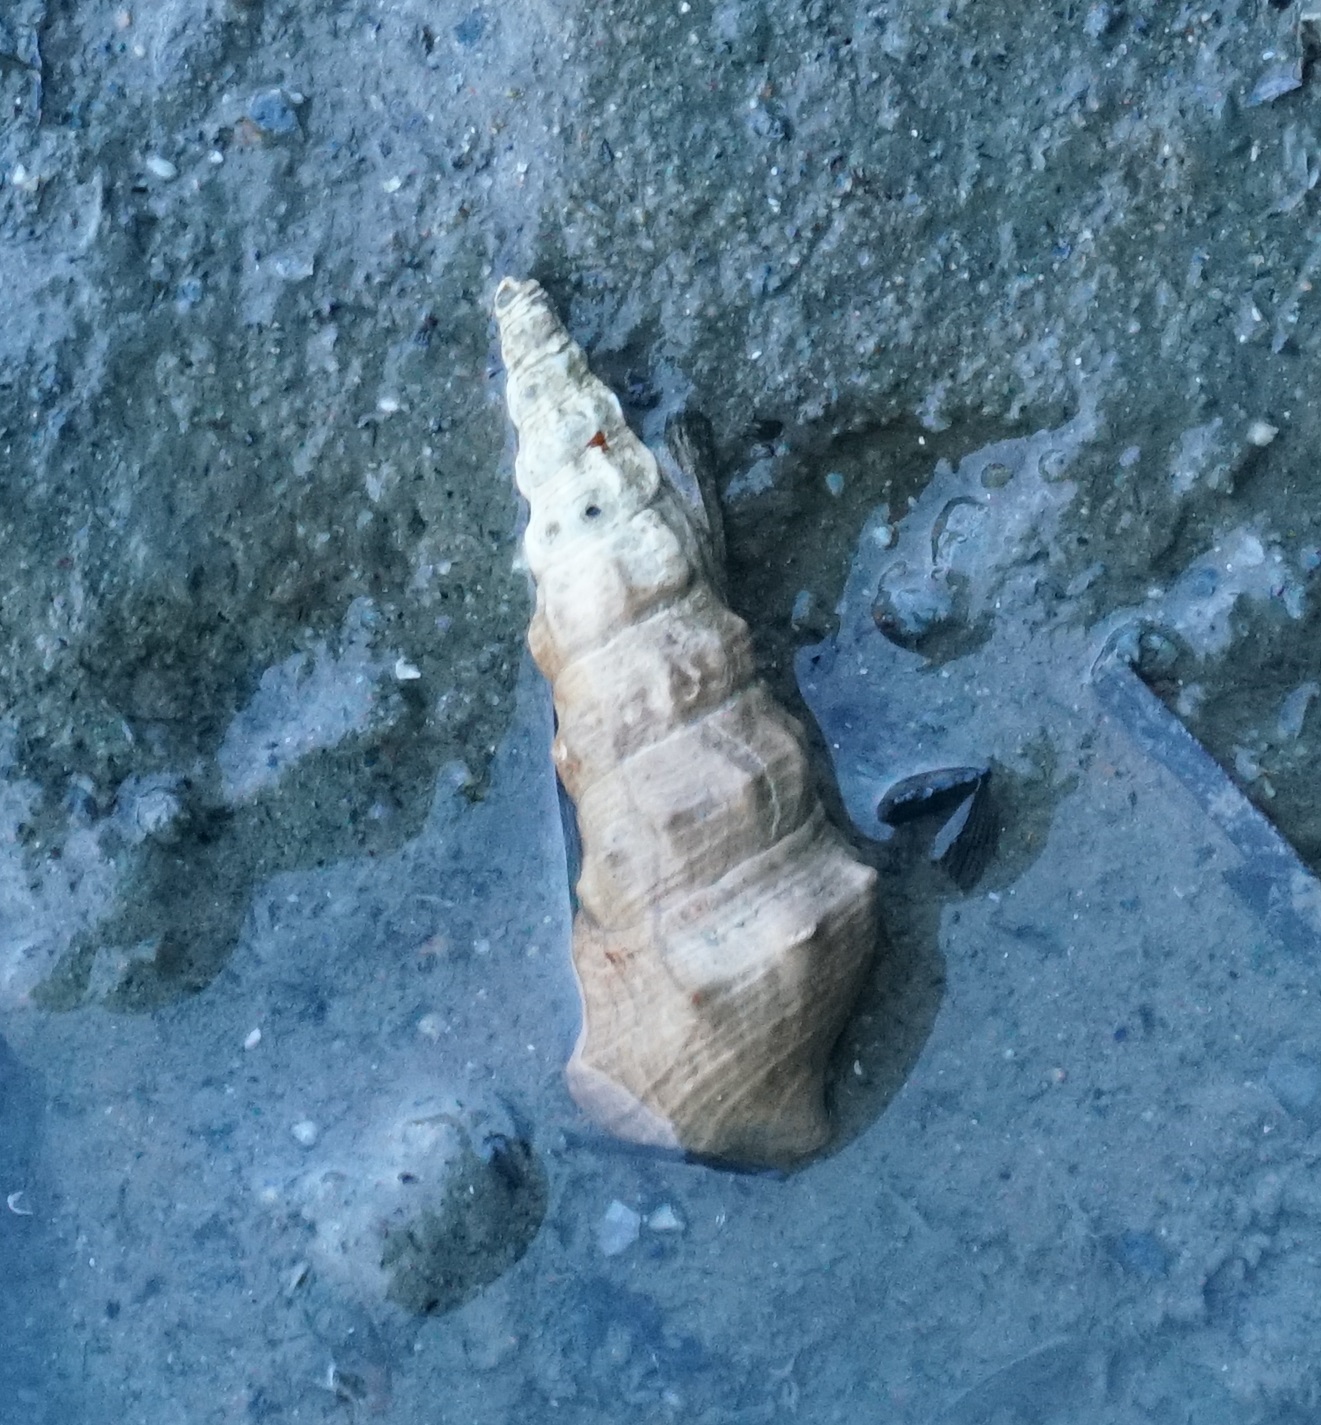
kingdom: Animalia
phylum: Mollusca
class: Gastropoda
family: Batillariidae
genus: Pyrazus
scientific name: Pyrazus ebeninus
